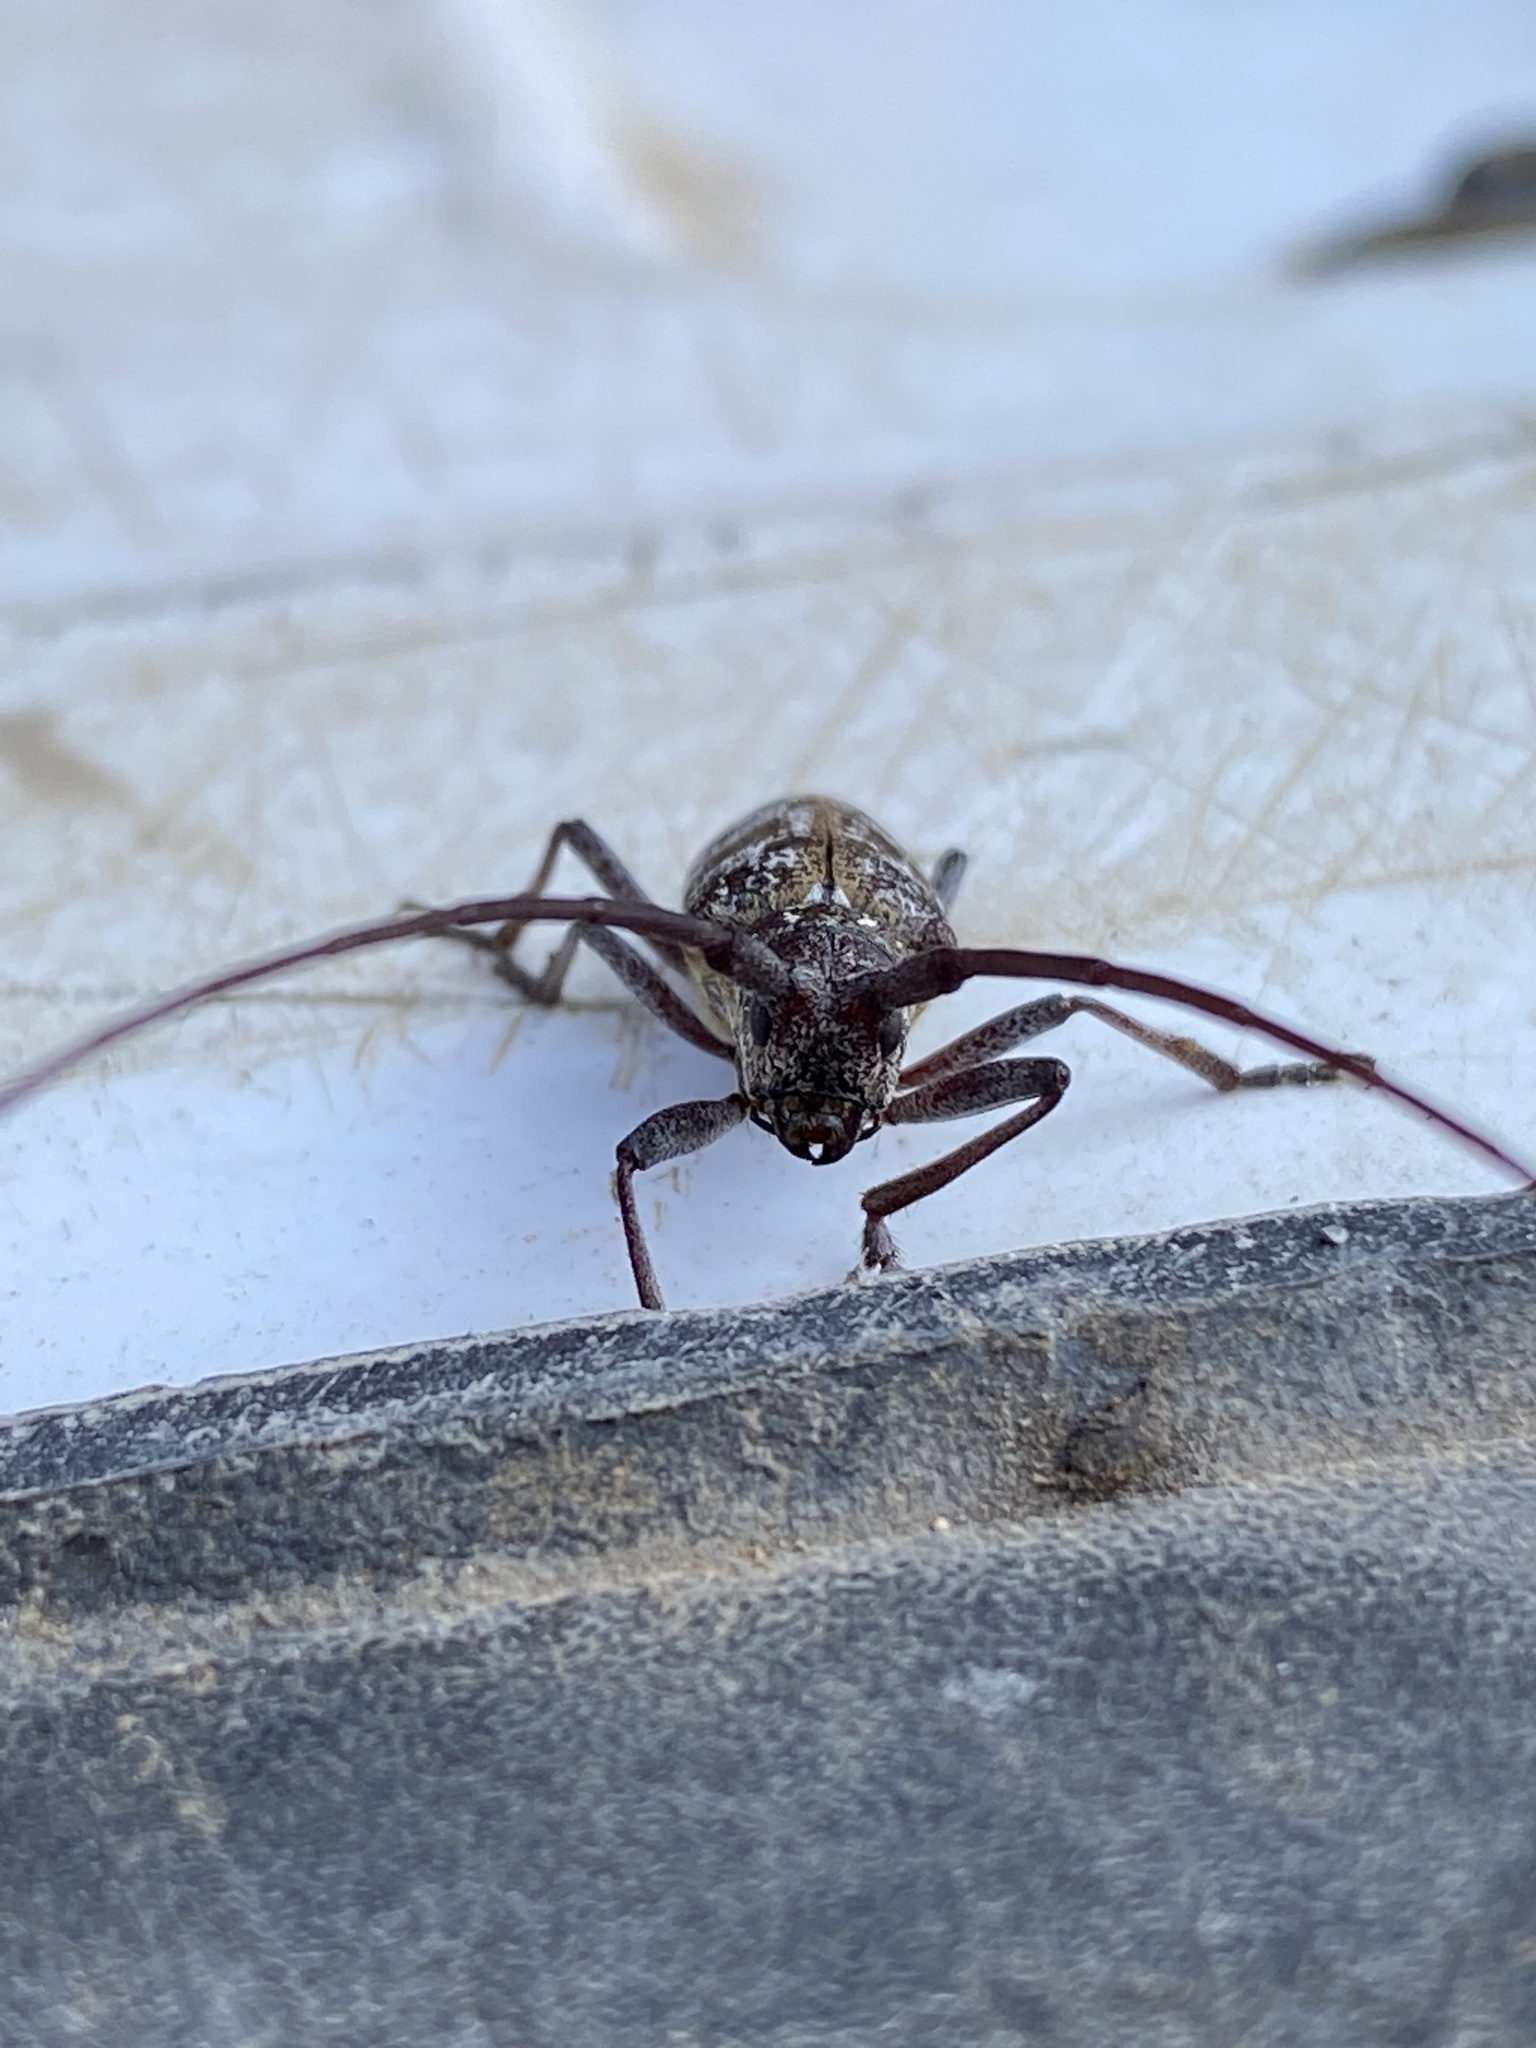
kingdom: Animalia
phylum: Arthropoda
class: Insecta
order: Coleoptera
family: Cerambycidae
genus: Monochamus
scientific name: Monochamus obtusus
